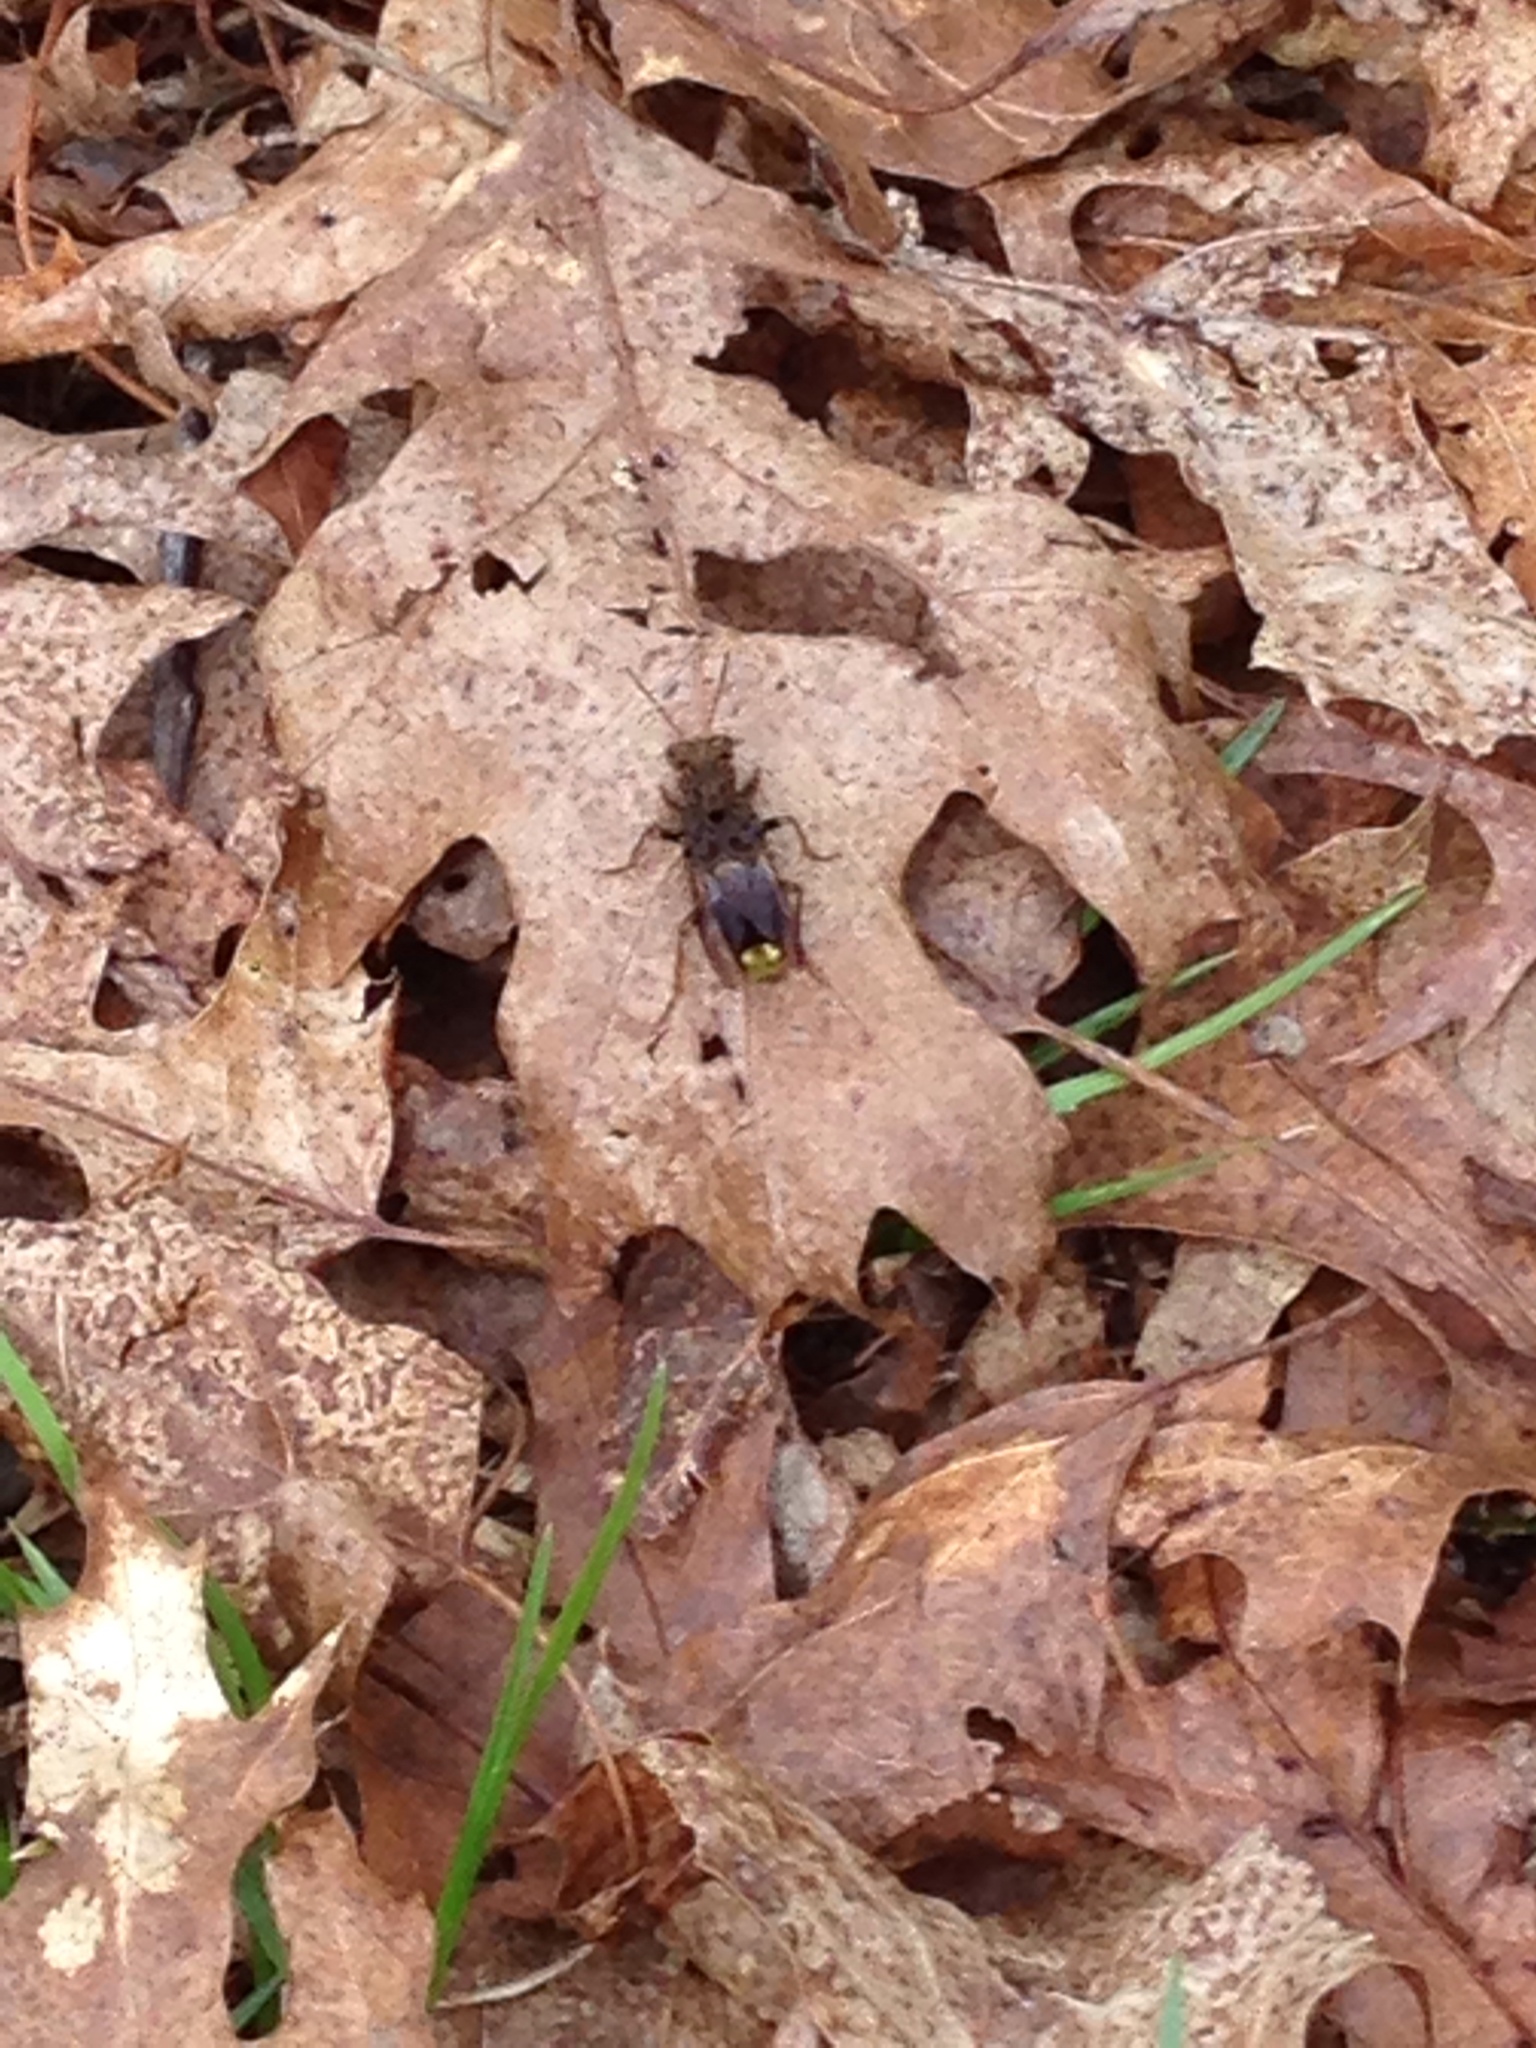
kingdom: Animalia
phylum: Arthropoda
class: Insecta
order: Coleoptera
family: Staphylinidae
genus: Ontholestes
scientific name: Ontholestes cingulatus
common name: Gold-and-brown rove beetle
